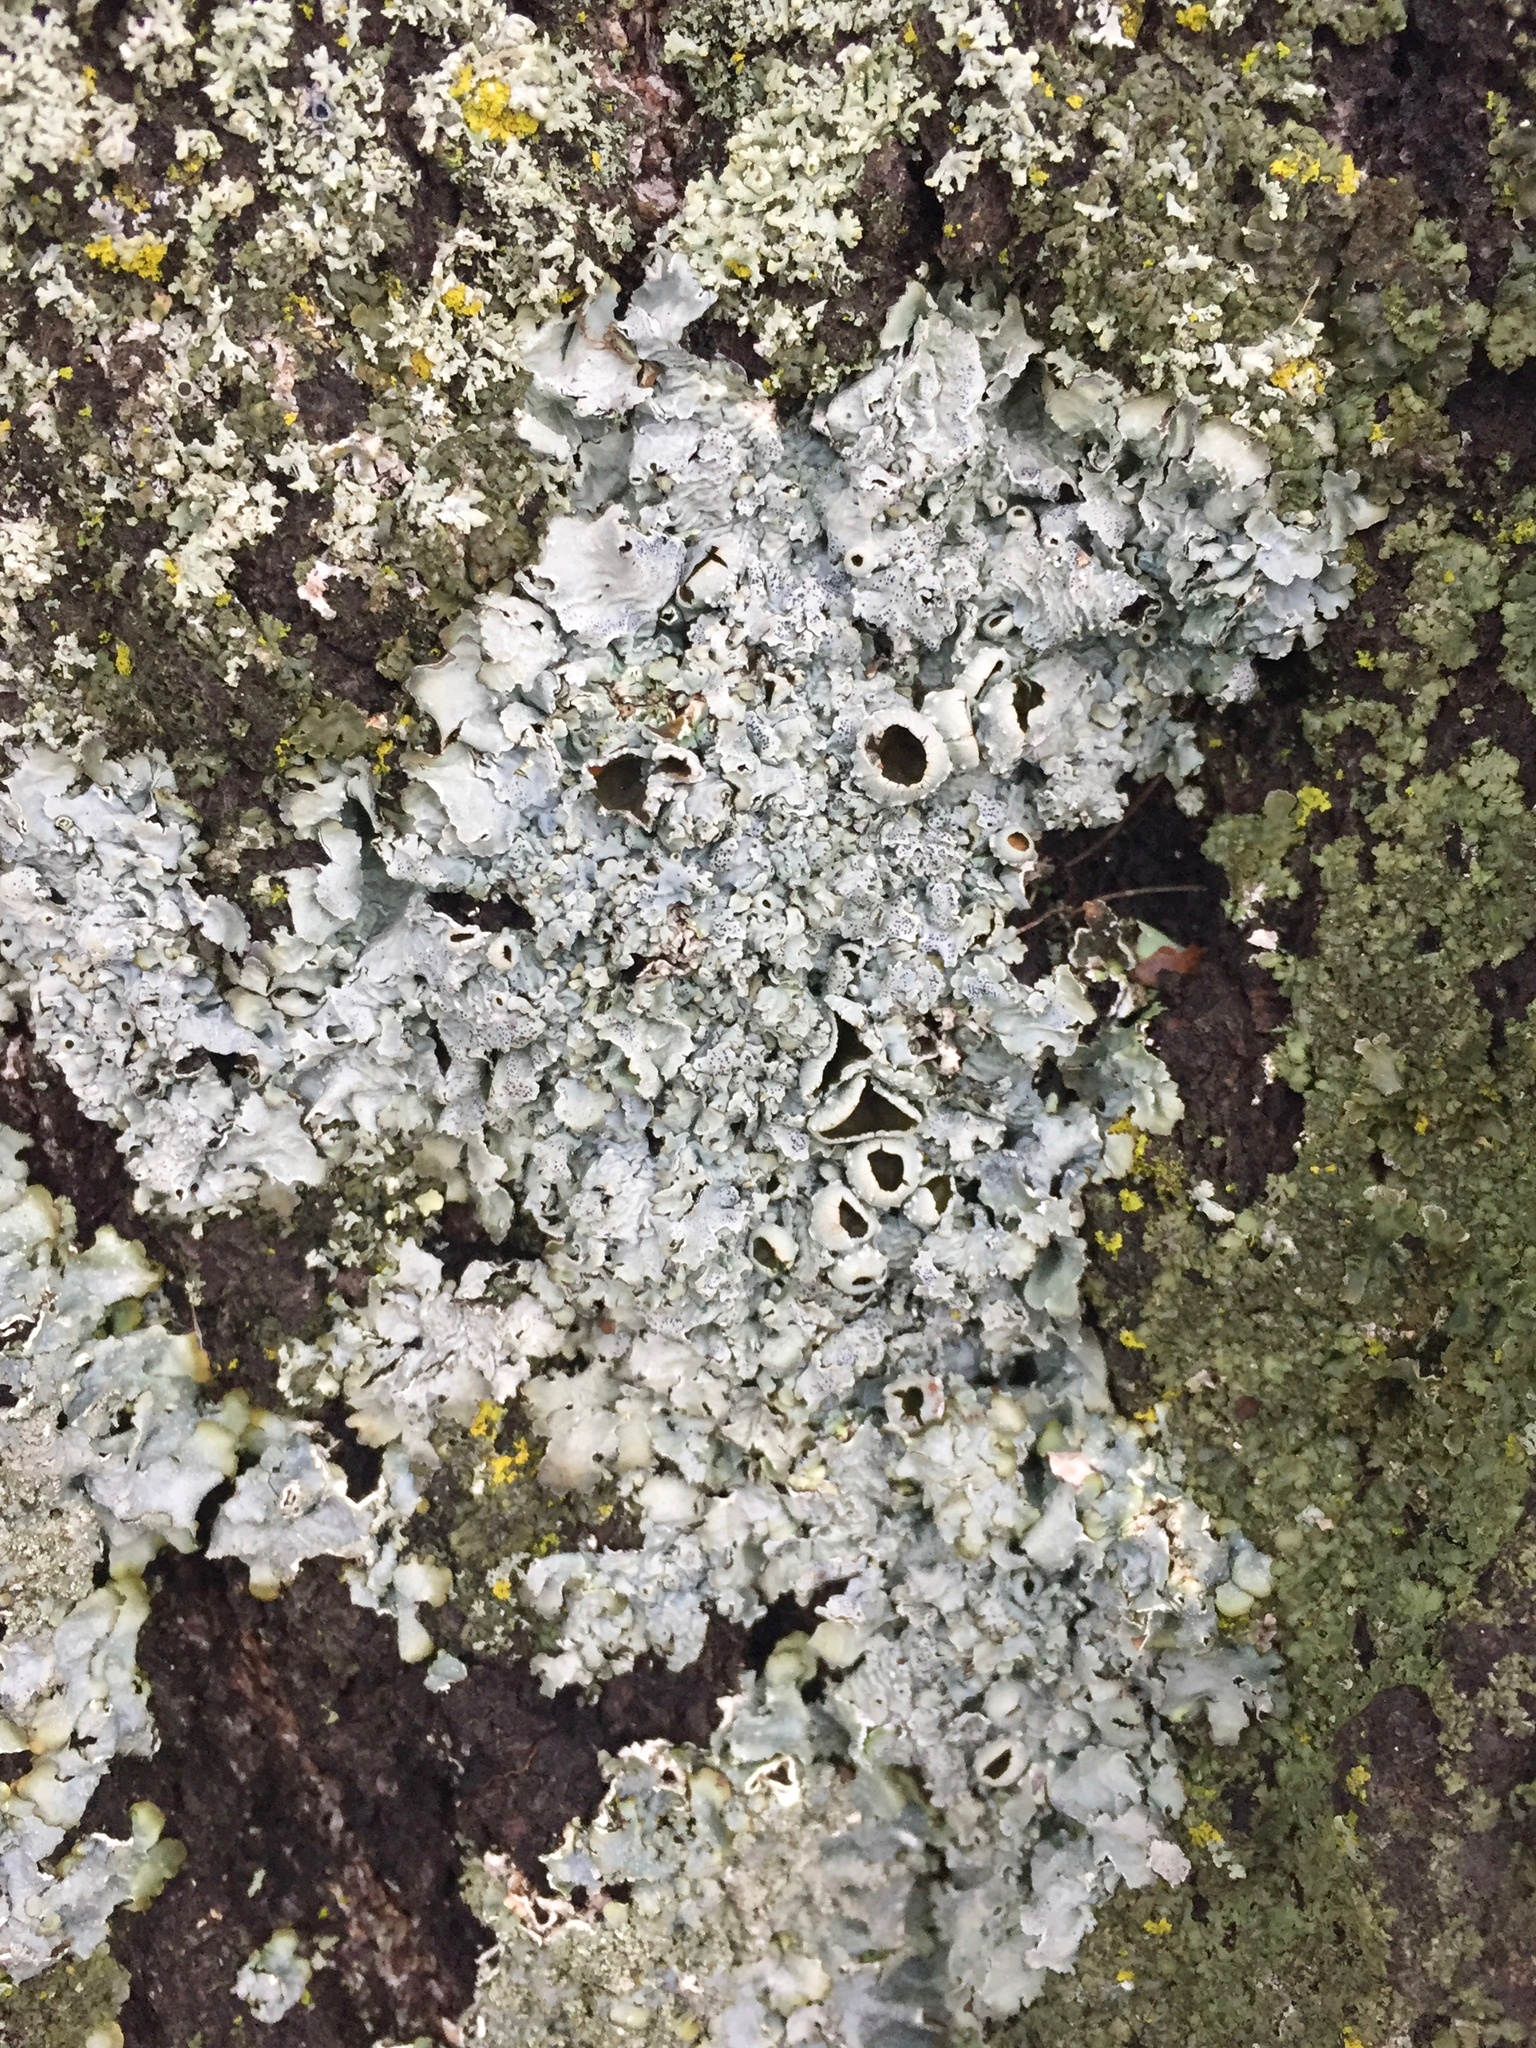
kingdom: Fungi
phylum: Ascomycota
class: Lecanoromycetes
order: Lecanorales
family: Parmeliaceae
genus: Punctelia
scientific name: Punctelia bolliana
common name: Eastern speckled shield lichen
